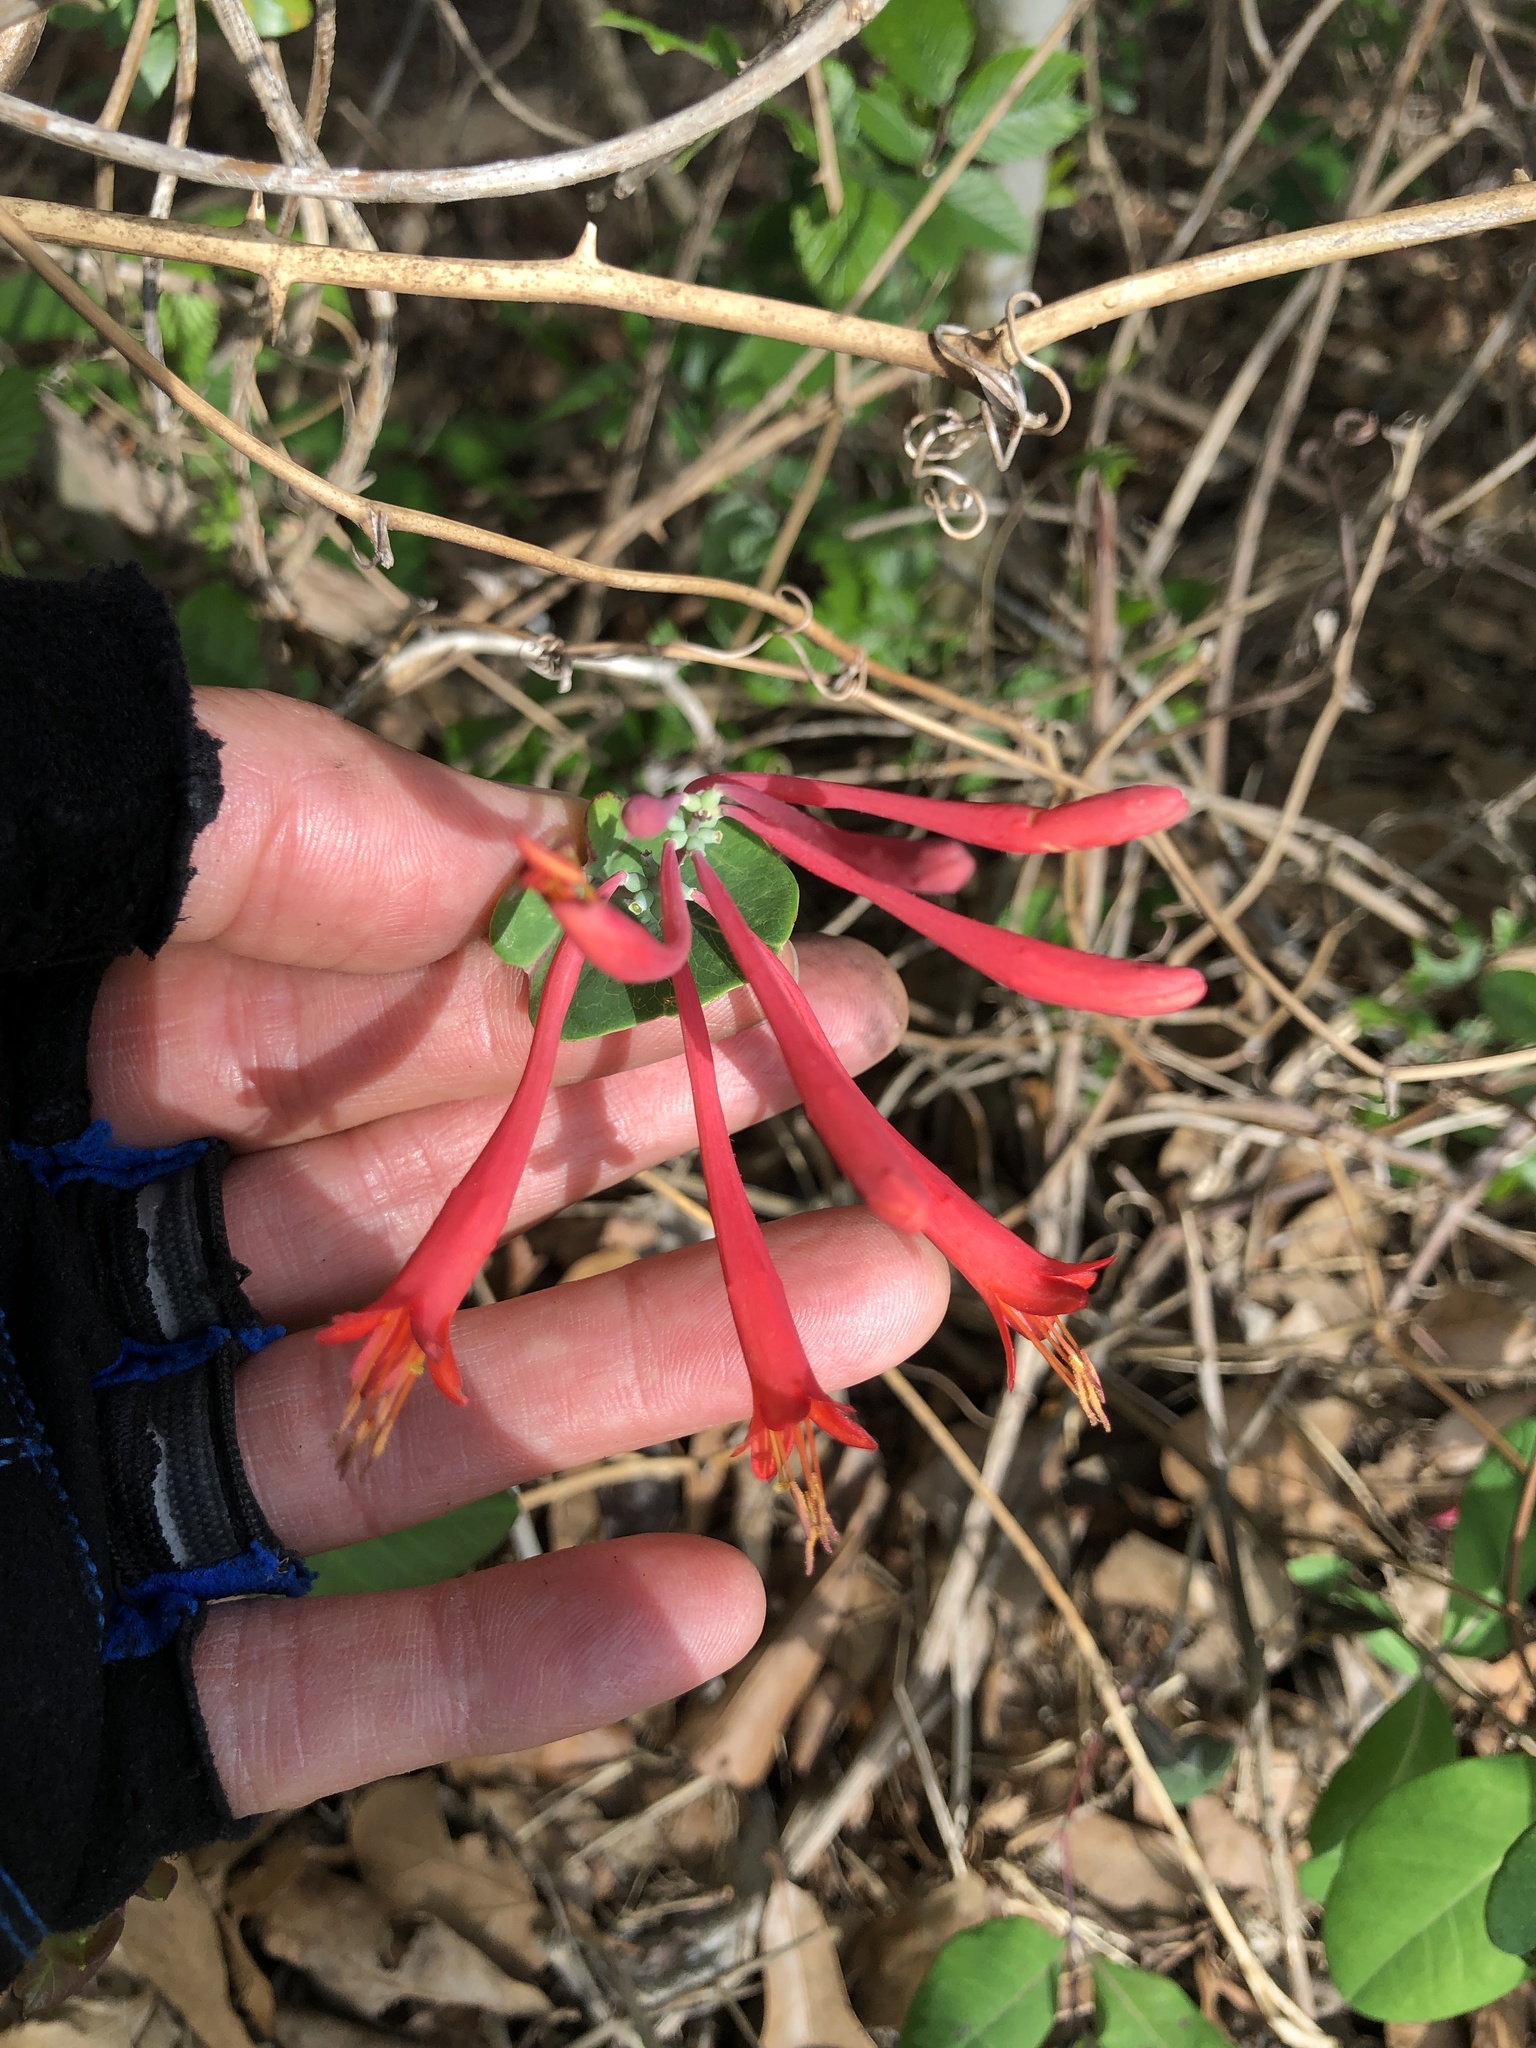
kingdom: Plantae
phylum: Tracheophyta
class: Magnoliopsida
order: Dipsacales
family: Caprifoliaceae
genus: Lonicera
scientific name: Lonicera sempervirens
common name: Coral honeysuckle
